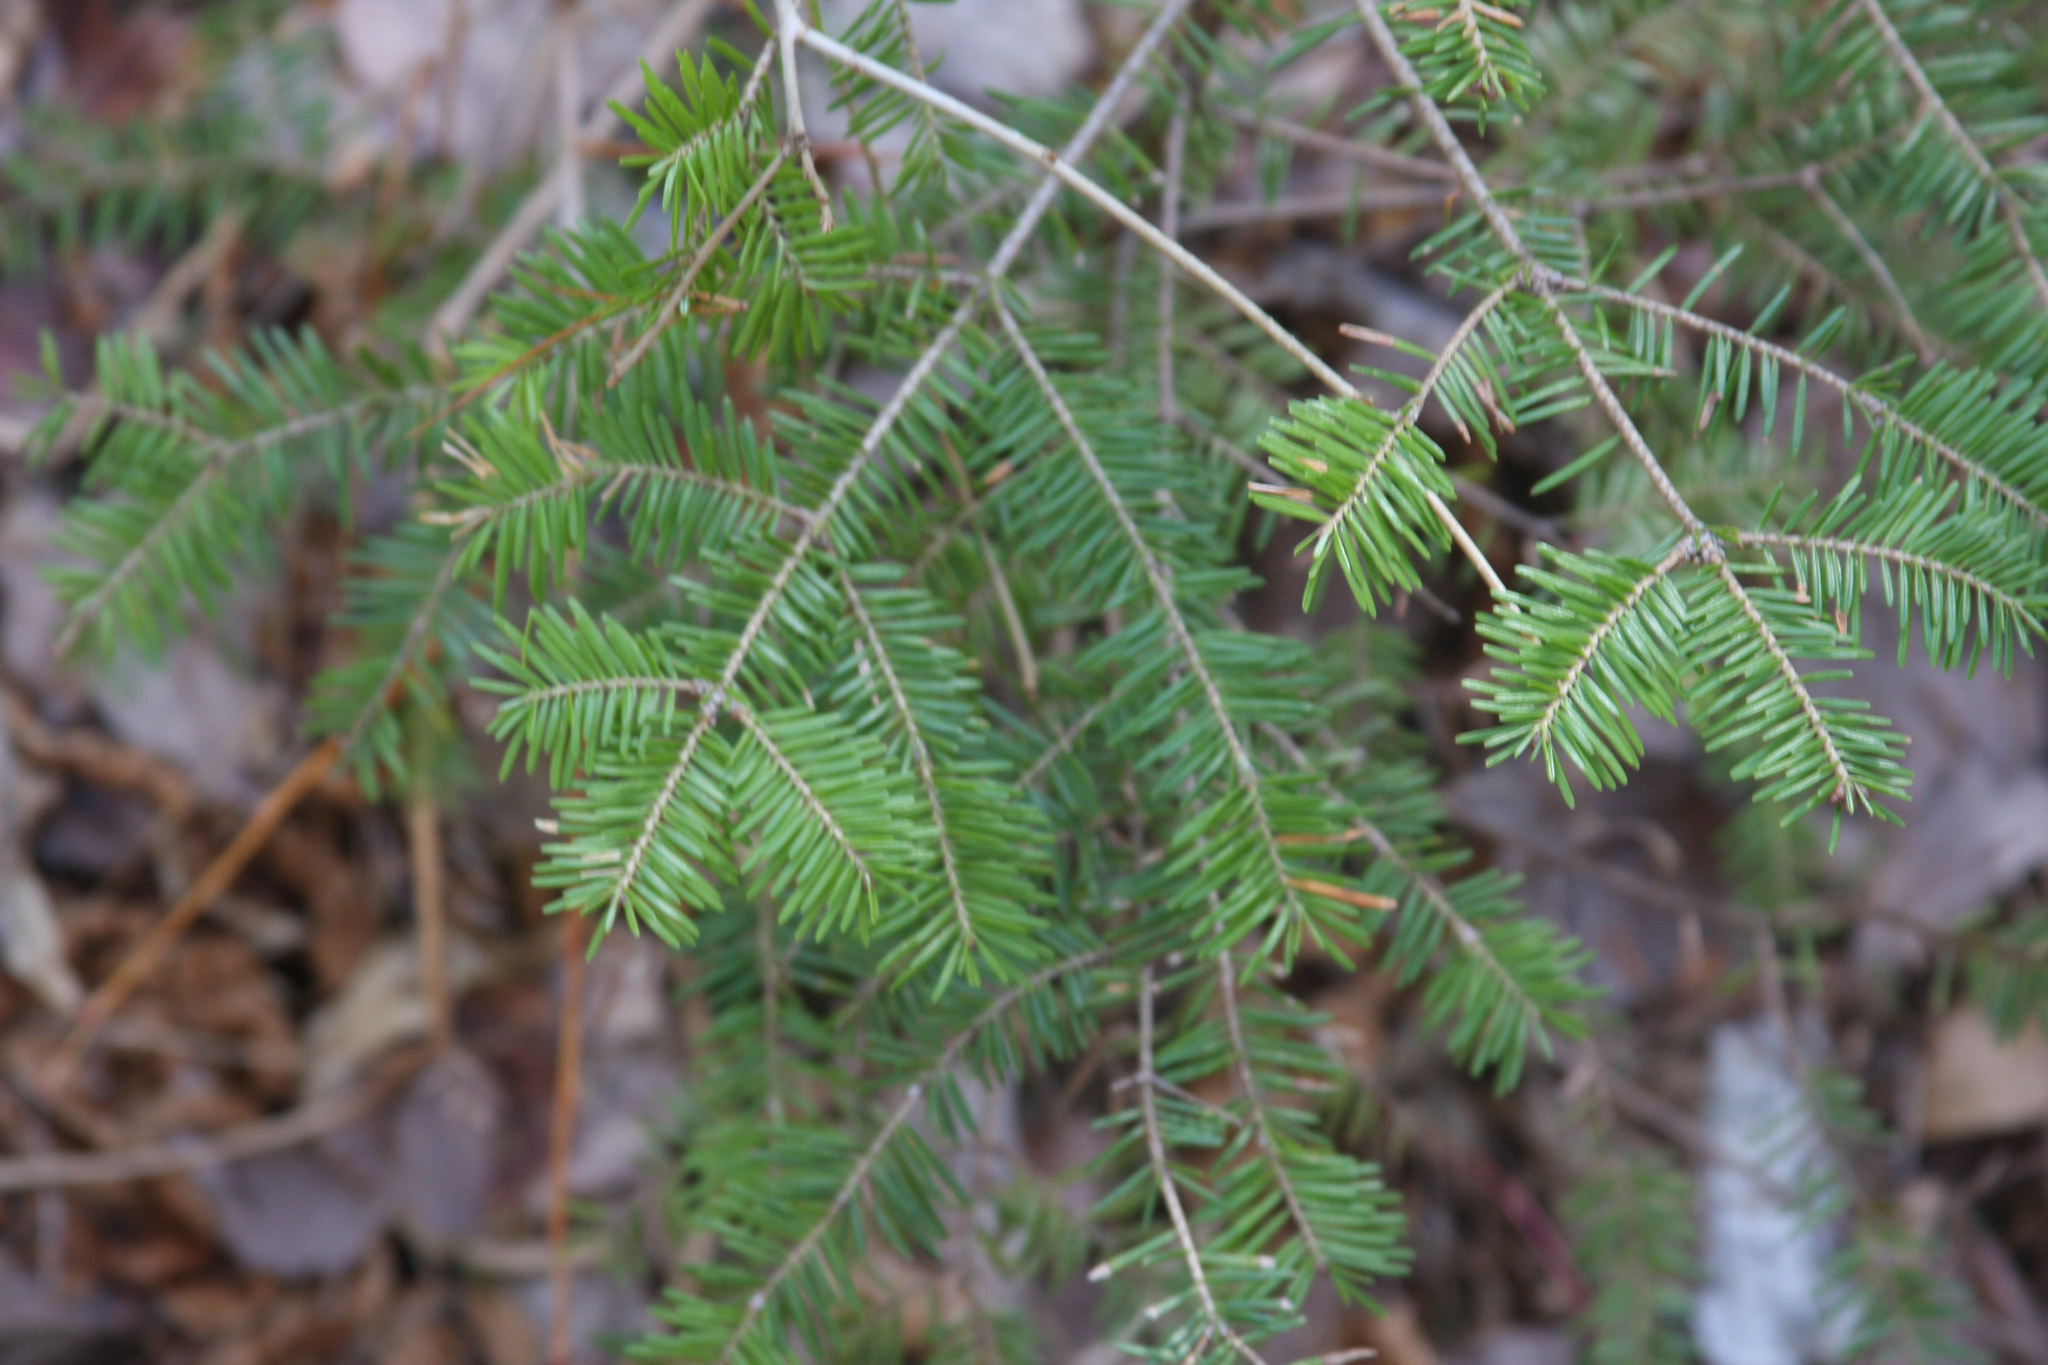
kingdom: Plantae
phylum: Tracheophyta
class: Pinopsida
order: Pinales
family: Pinaceae
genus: Abies
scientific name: Abies balsamea
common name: Balsam fir
